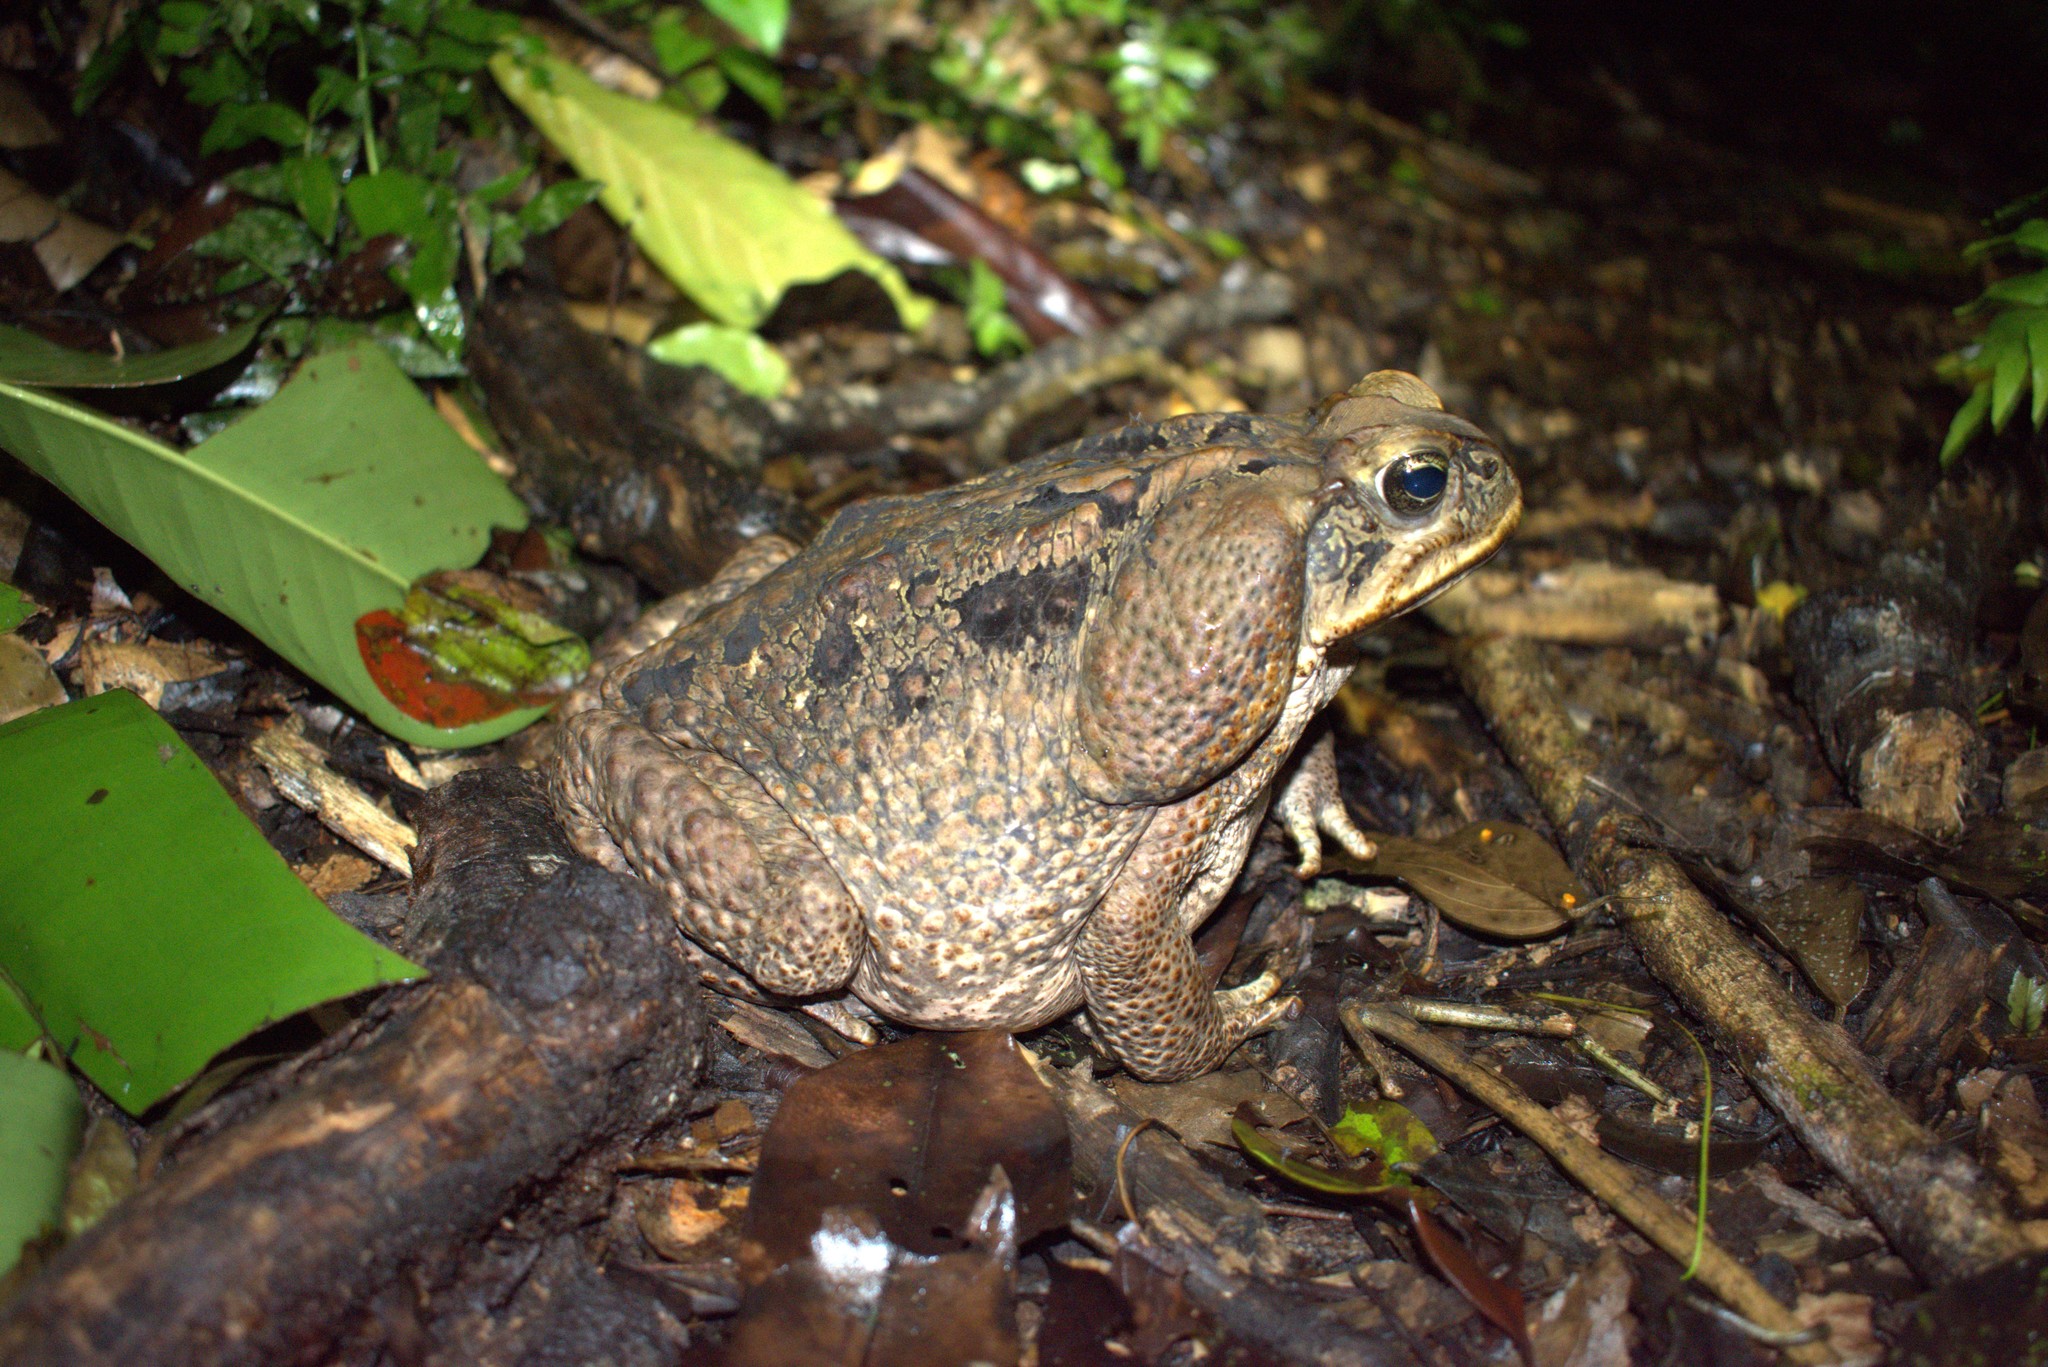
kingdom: Animalia
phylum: Chordata
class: Amphibia
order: Anura
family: Bufonidae
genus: Rhinella
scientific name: Rhinella marina
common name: Cane toad
